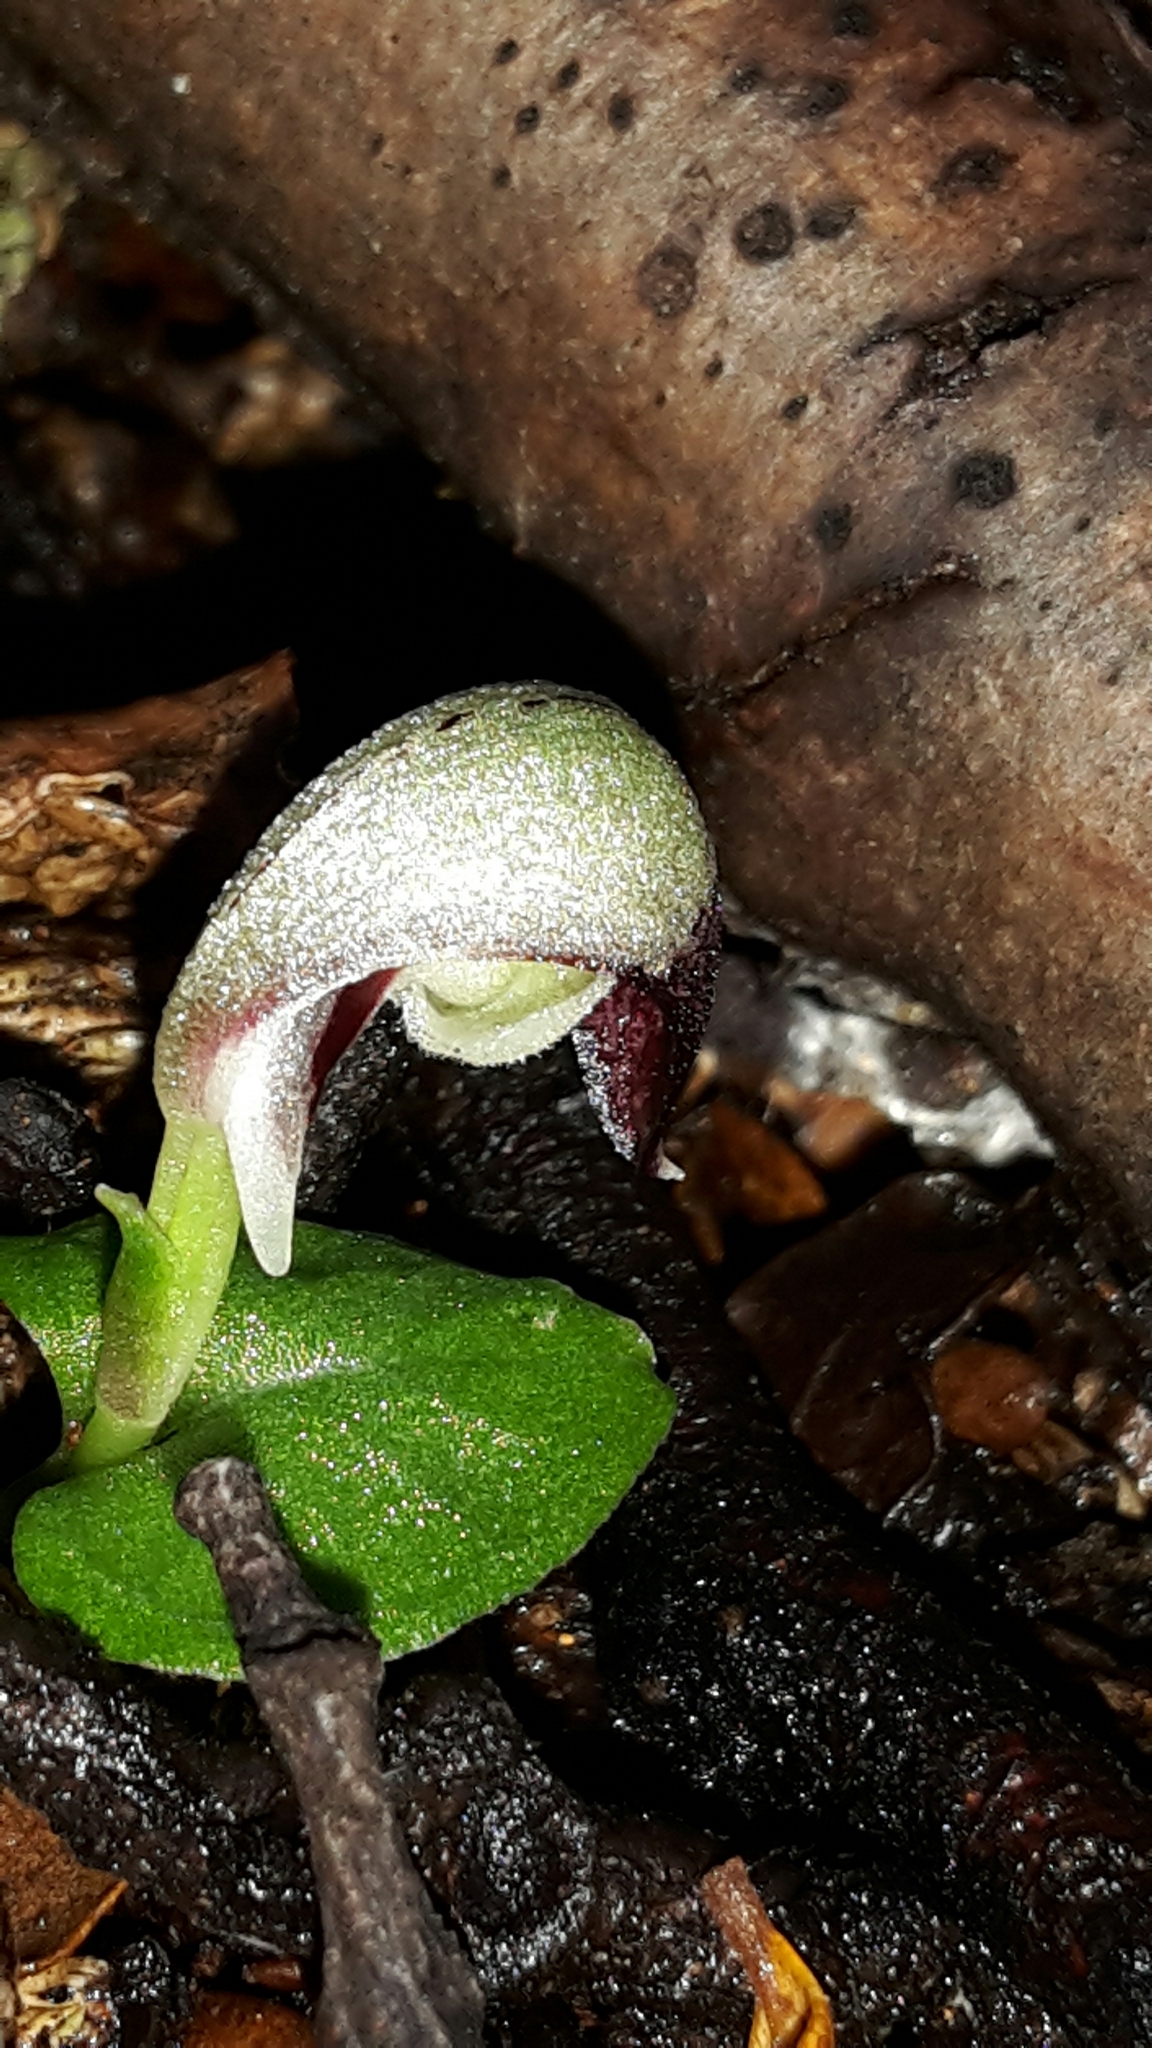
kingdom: Plantae
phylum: Tracheophyta
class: Liliopsida
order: Asparagales
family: Orchidaceae
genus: Corybas
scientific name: Corybas cheesemanii
